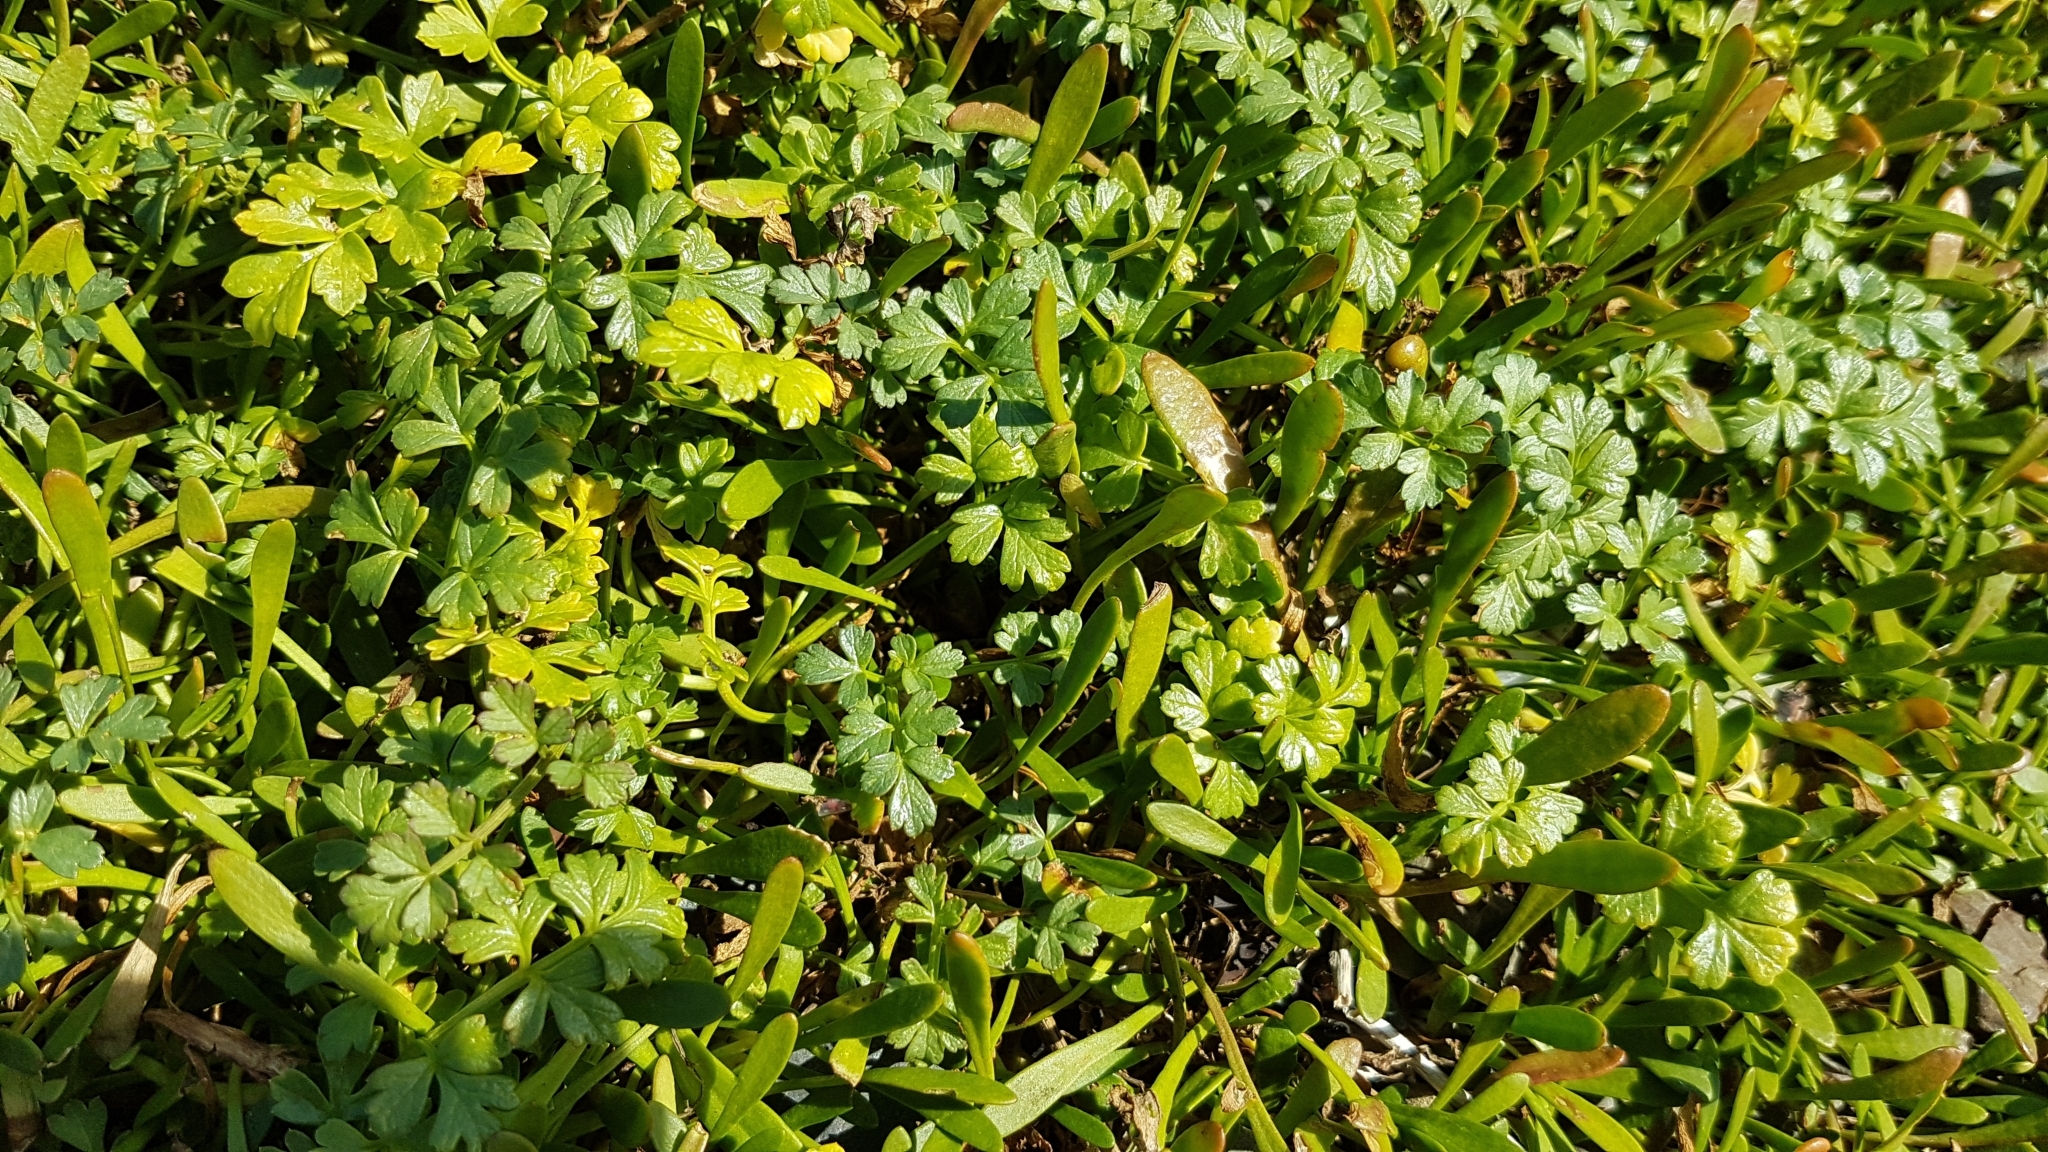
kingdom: Plantae
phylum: Tracheophyta
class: Magnoliopsida
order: Apiales
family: Apiaceae
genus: Apium
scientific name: Apium prostratum
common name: Prostrate marshwort
